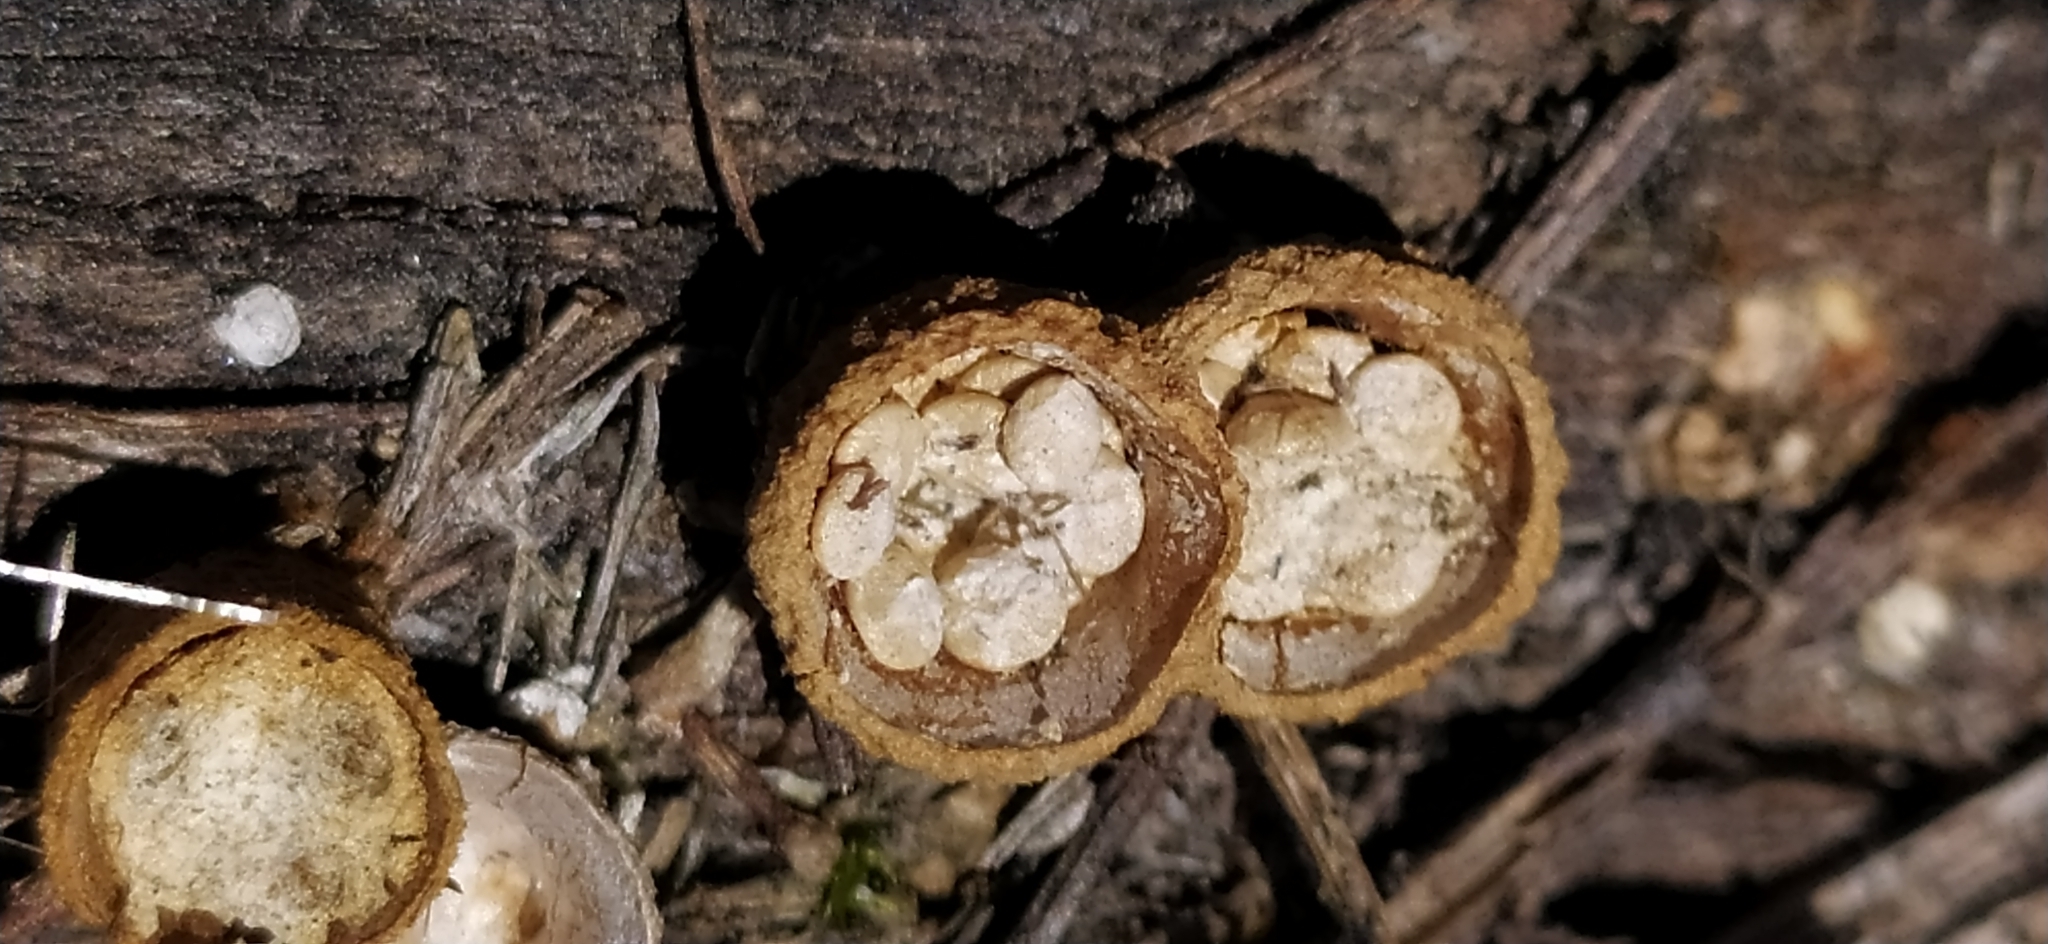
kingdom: Fungi
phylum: Basidiomycota
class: Agaricomycetes
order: Agaricales
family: Nidulariaceae
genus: Crucibulum
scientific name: Crucibulum laeve
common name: Common bird's nest
